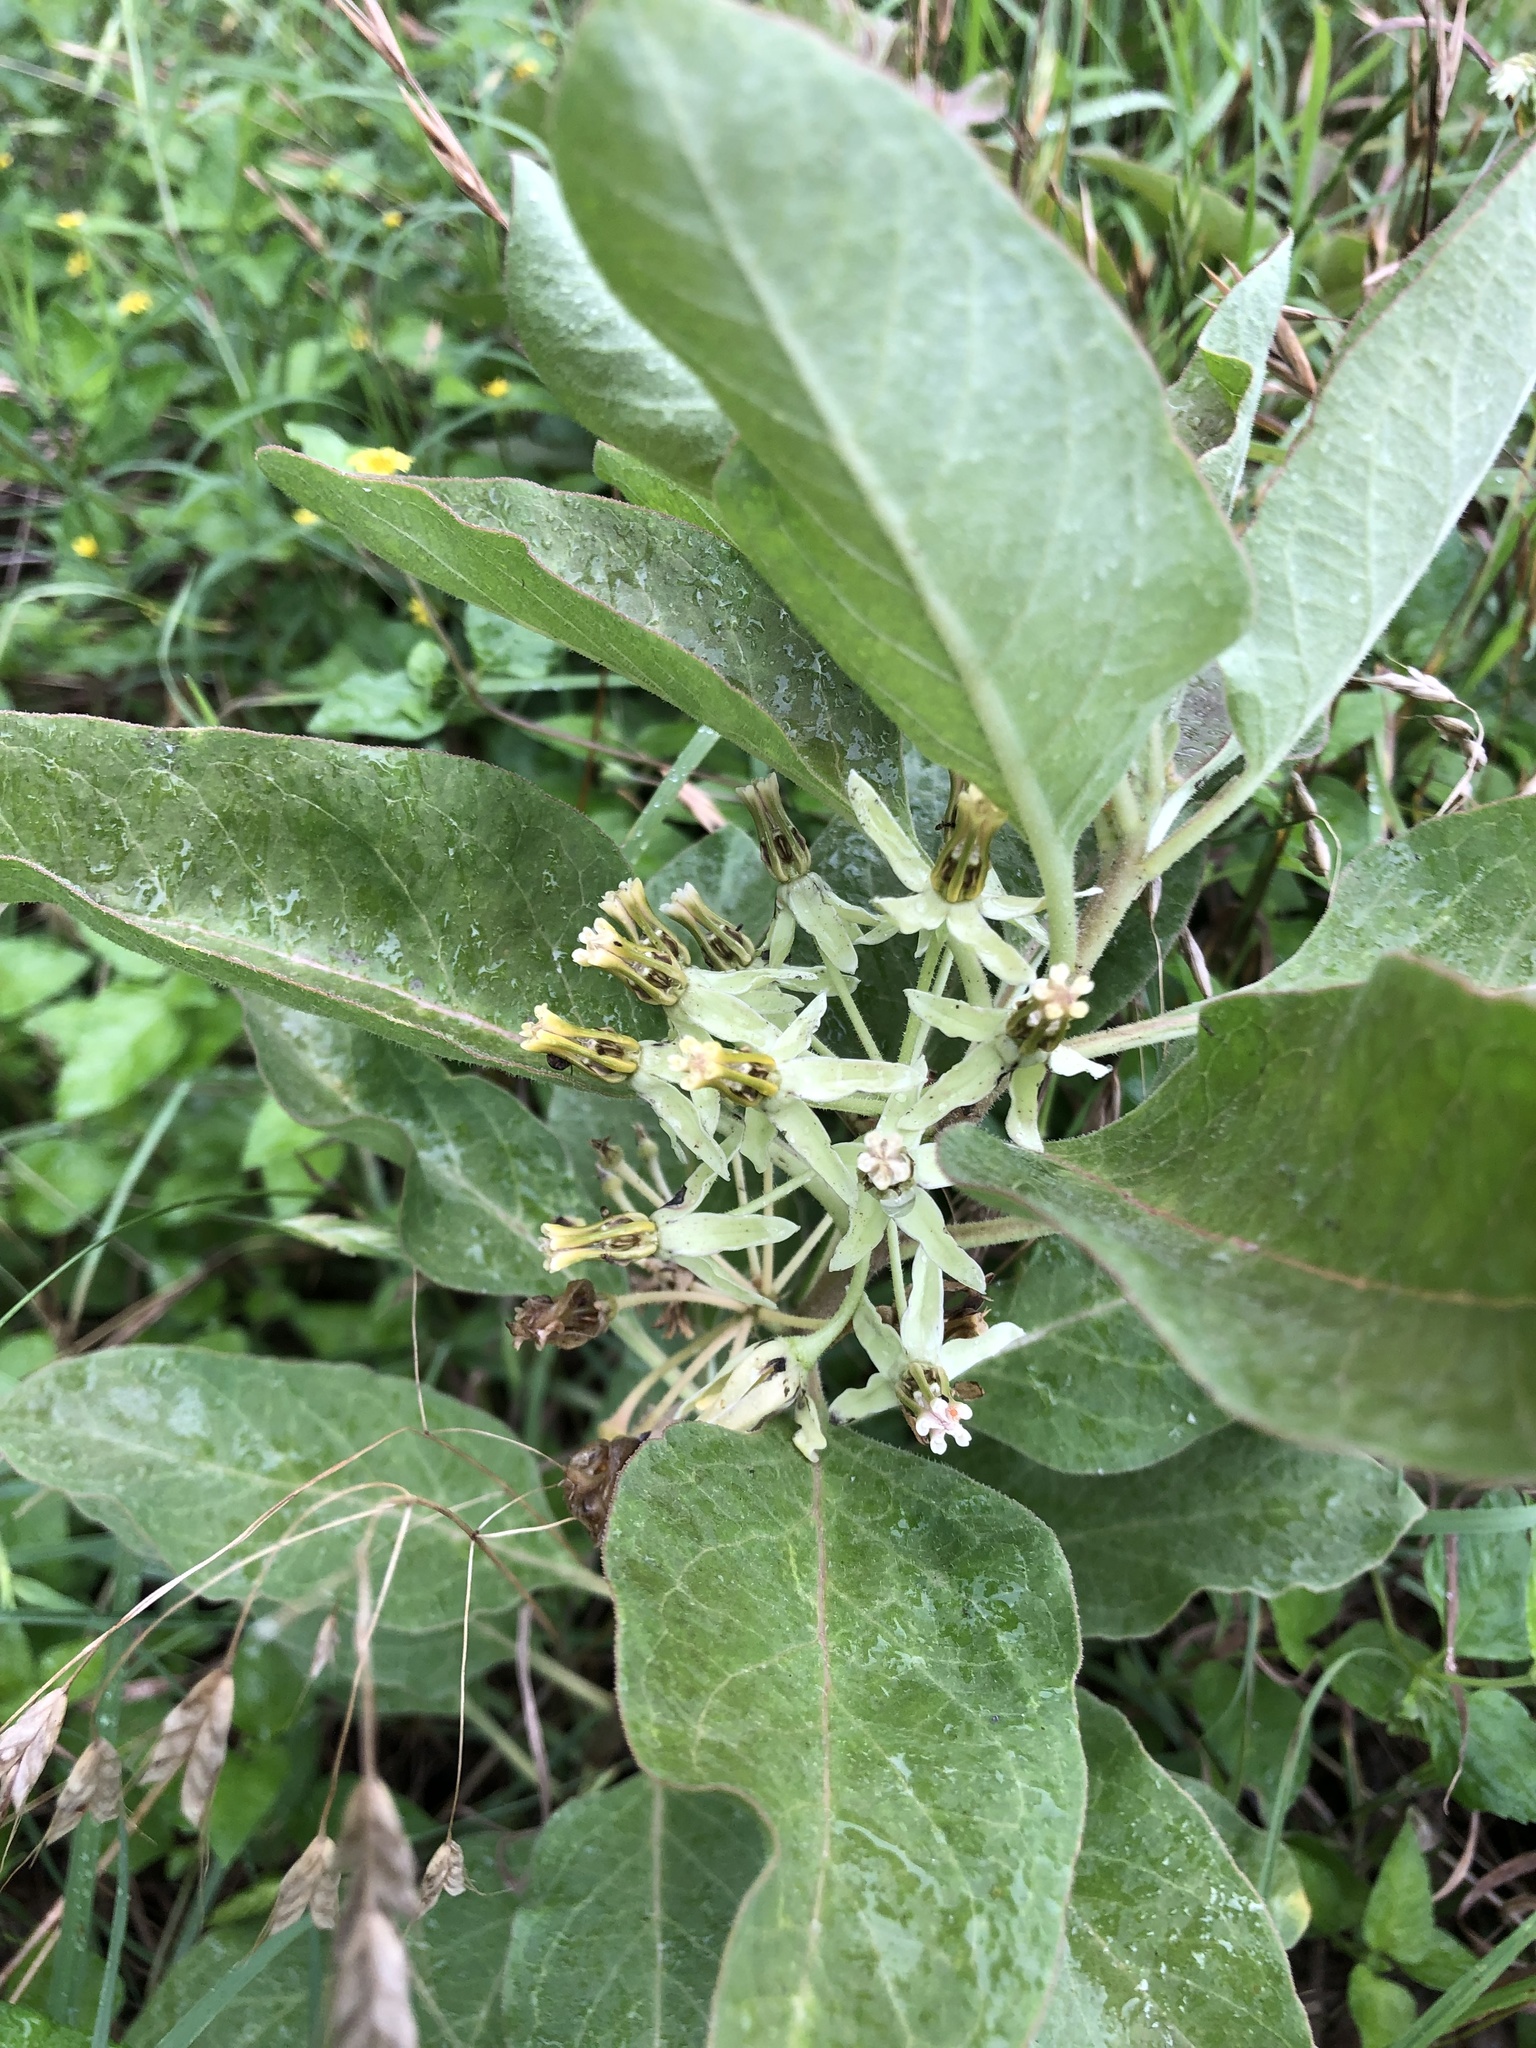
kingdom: Plantae
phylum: Tracheophyta
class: Magnoliopsida
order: Gentianales
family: Apocynaceae
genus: Asclepias
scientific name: Asclepias oenotheroides
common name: Zizotes milkweed
